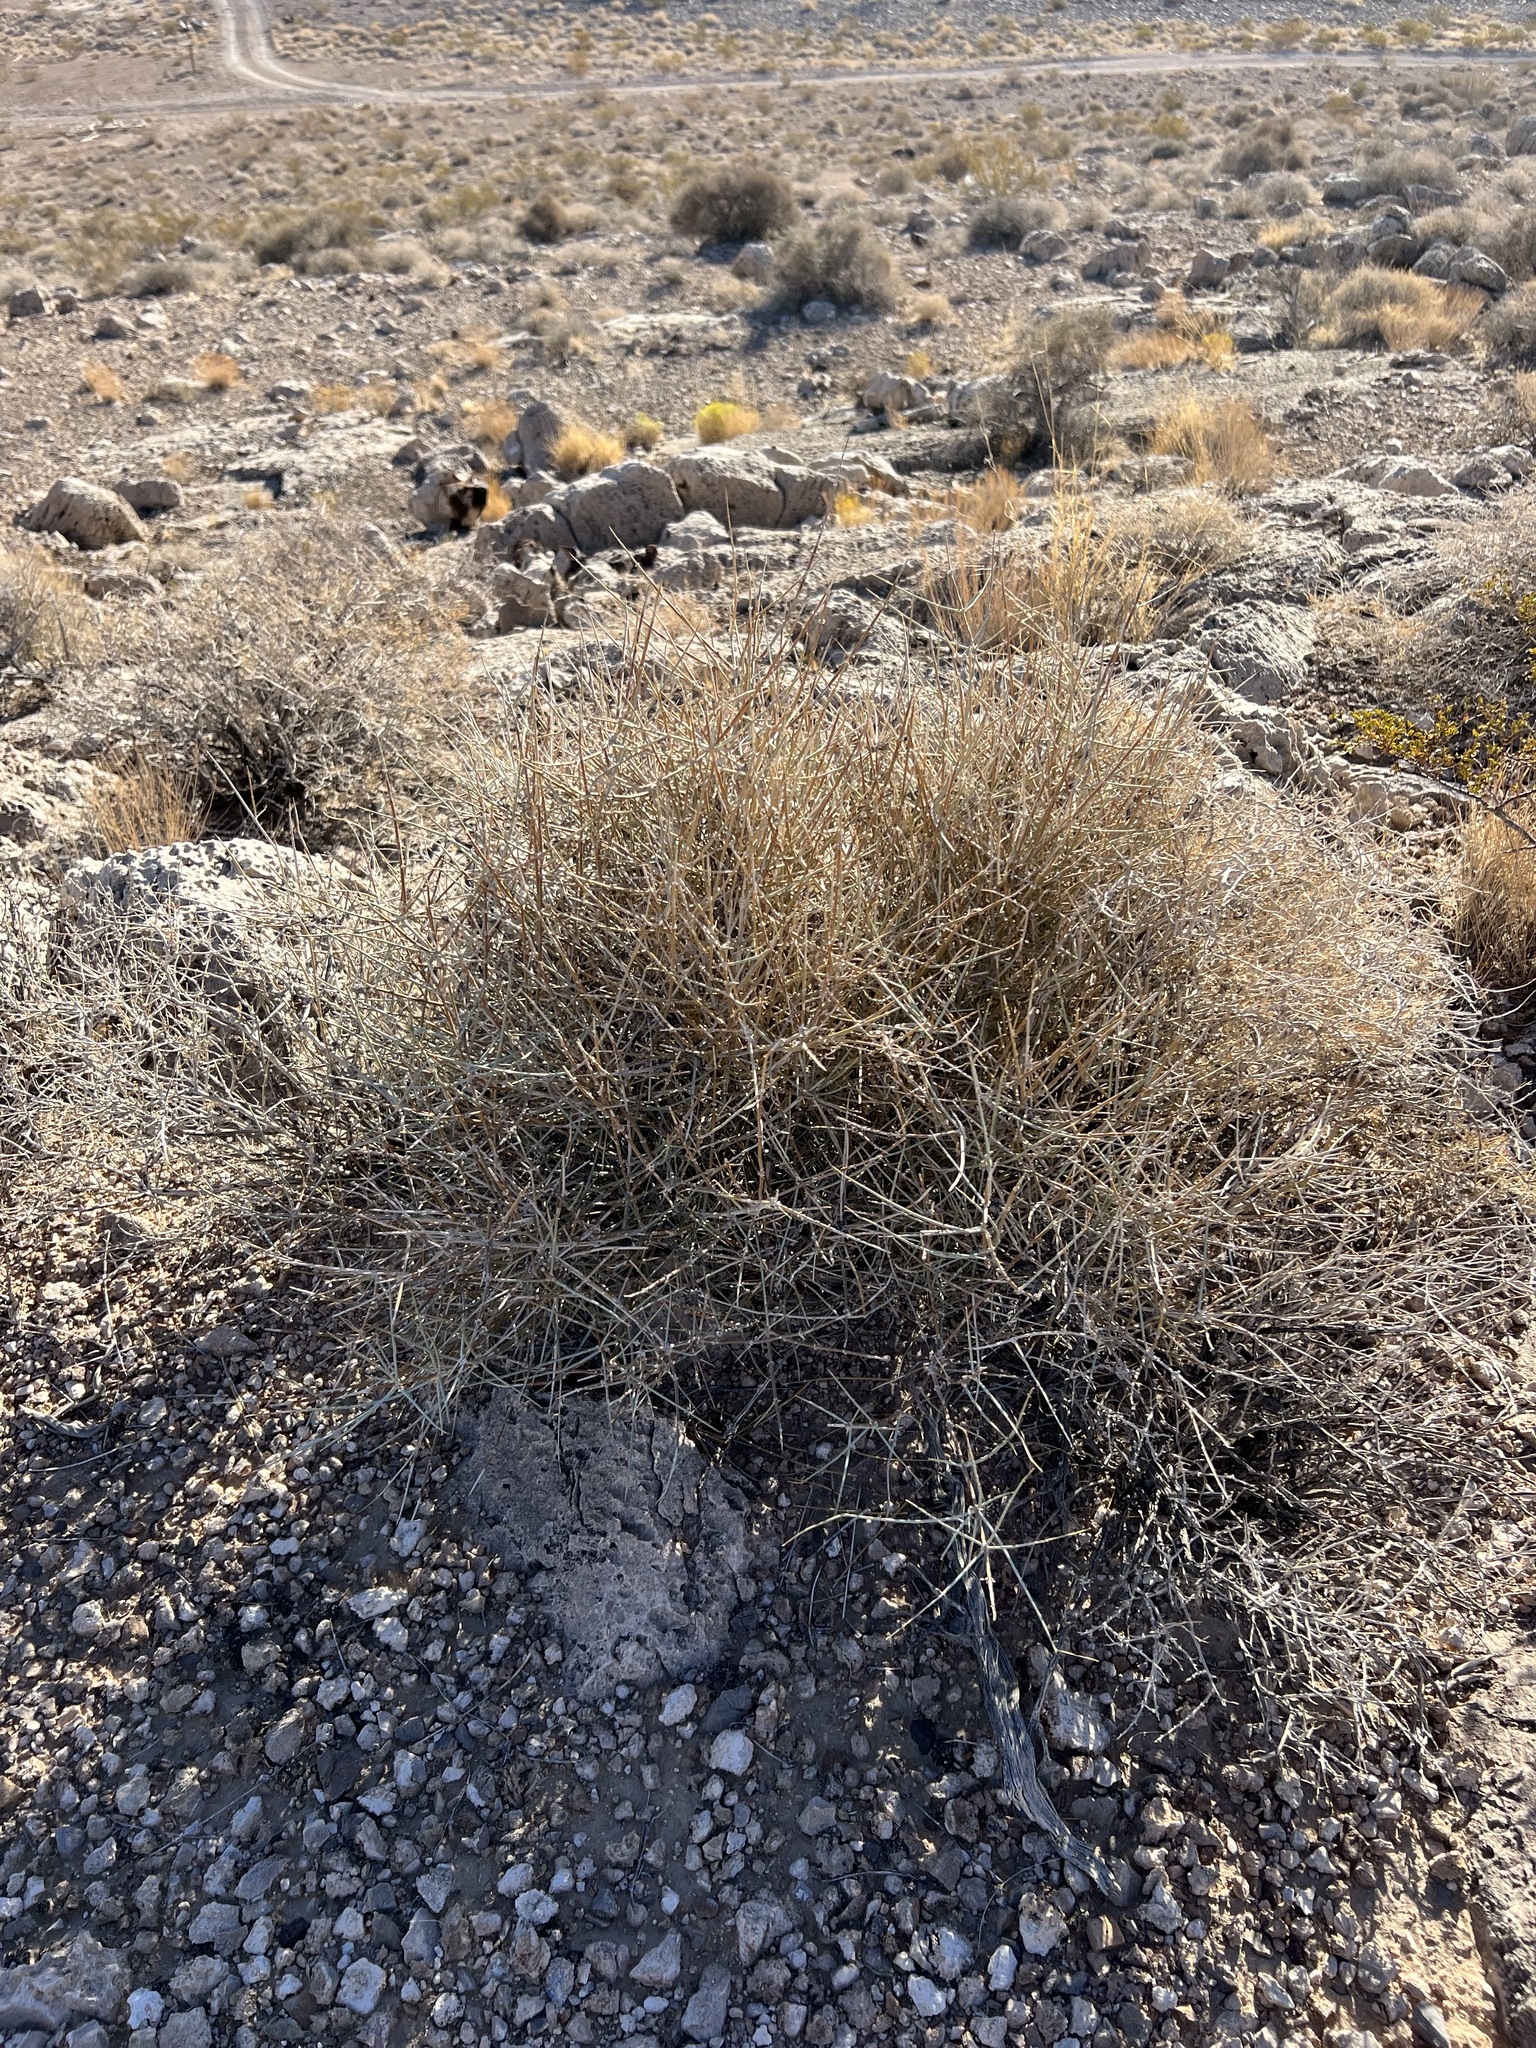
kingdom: Plantae
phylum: Tracheophyta
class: Gnetopsida
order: Ephedrales
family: Ephedraceae
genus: Ephedra
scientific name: Ephedra nevadensis
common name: Gray ephedra
